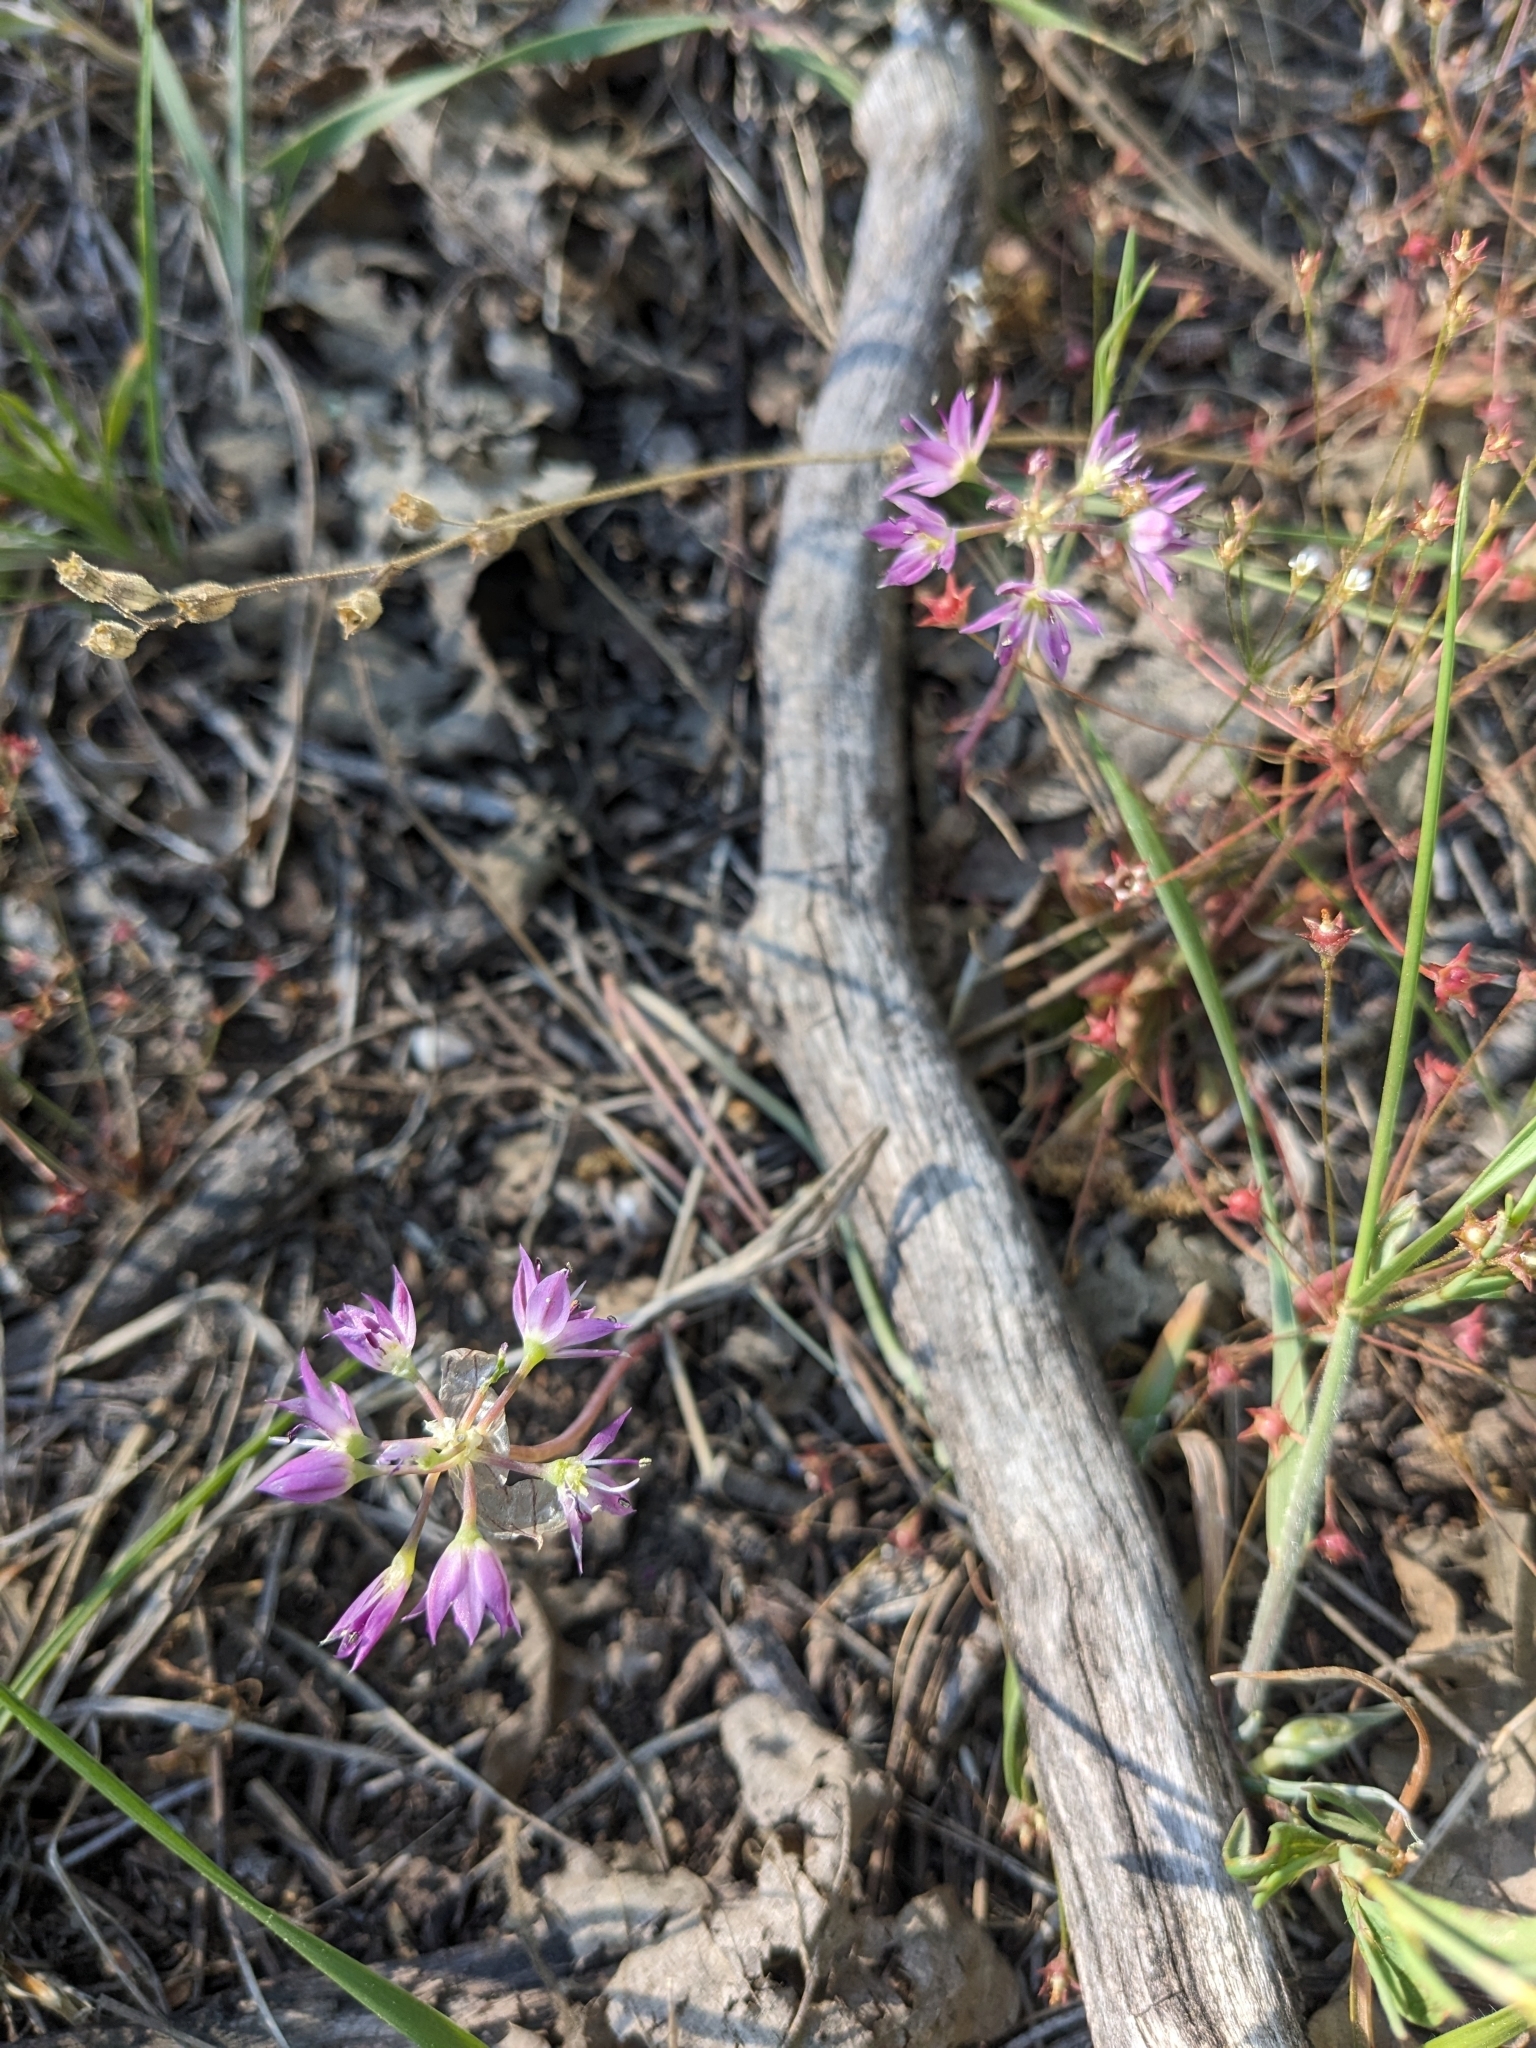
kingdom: Plantae
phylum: Tracheophyta
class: Liliopsida
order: Asparagales
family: Amaryllidaceae
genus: Allium
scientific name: Allium bisceptrum
